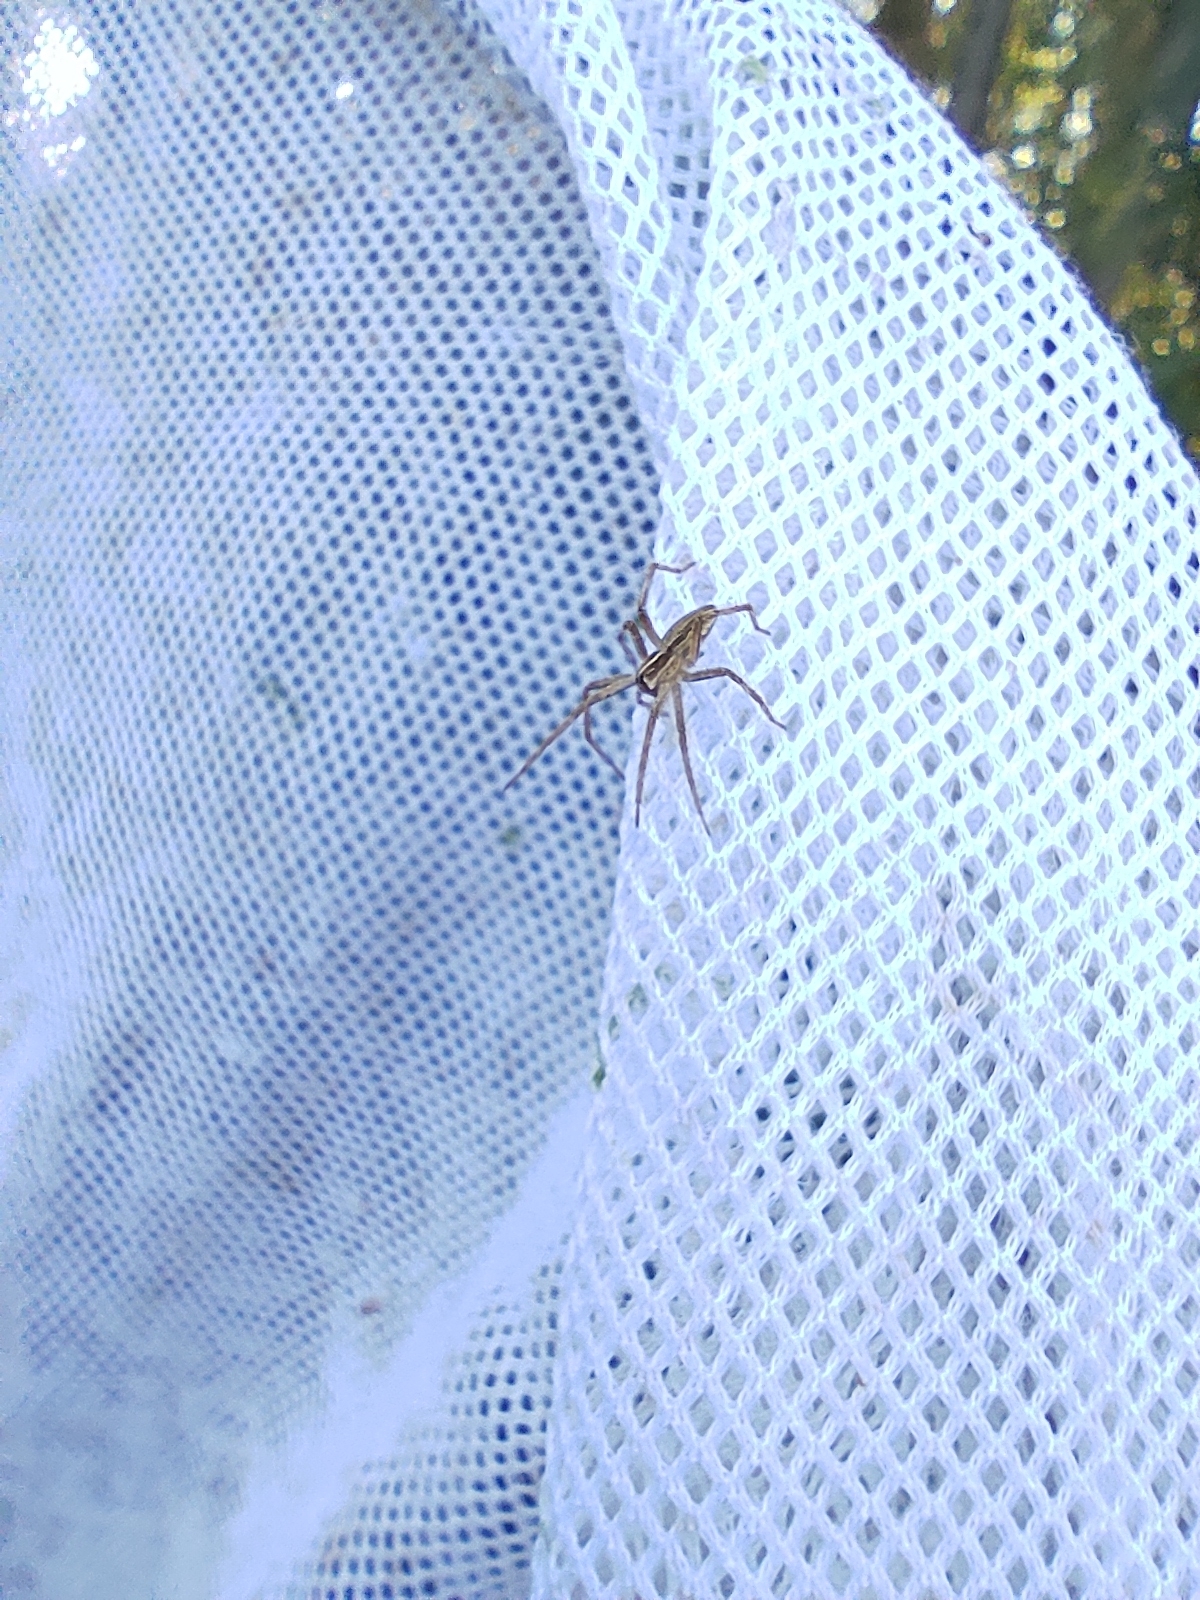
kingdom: Animalia
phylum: Arthropoda
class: Arachnida
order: Araneae
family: Pisauridae
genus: Pisaura
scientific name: Pisaura
